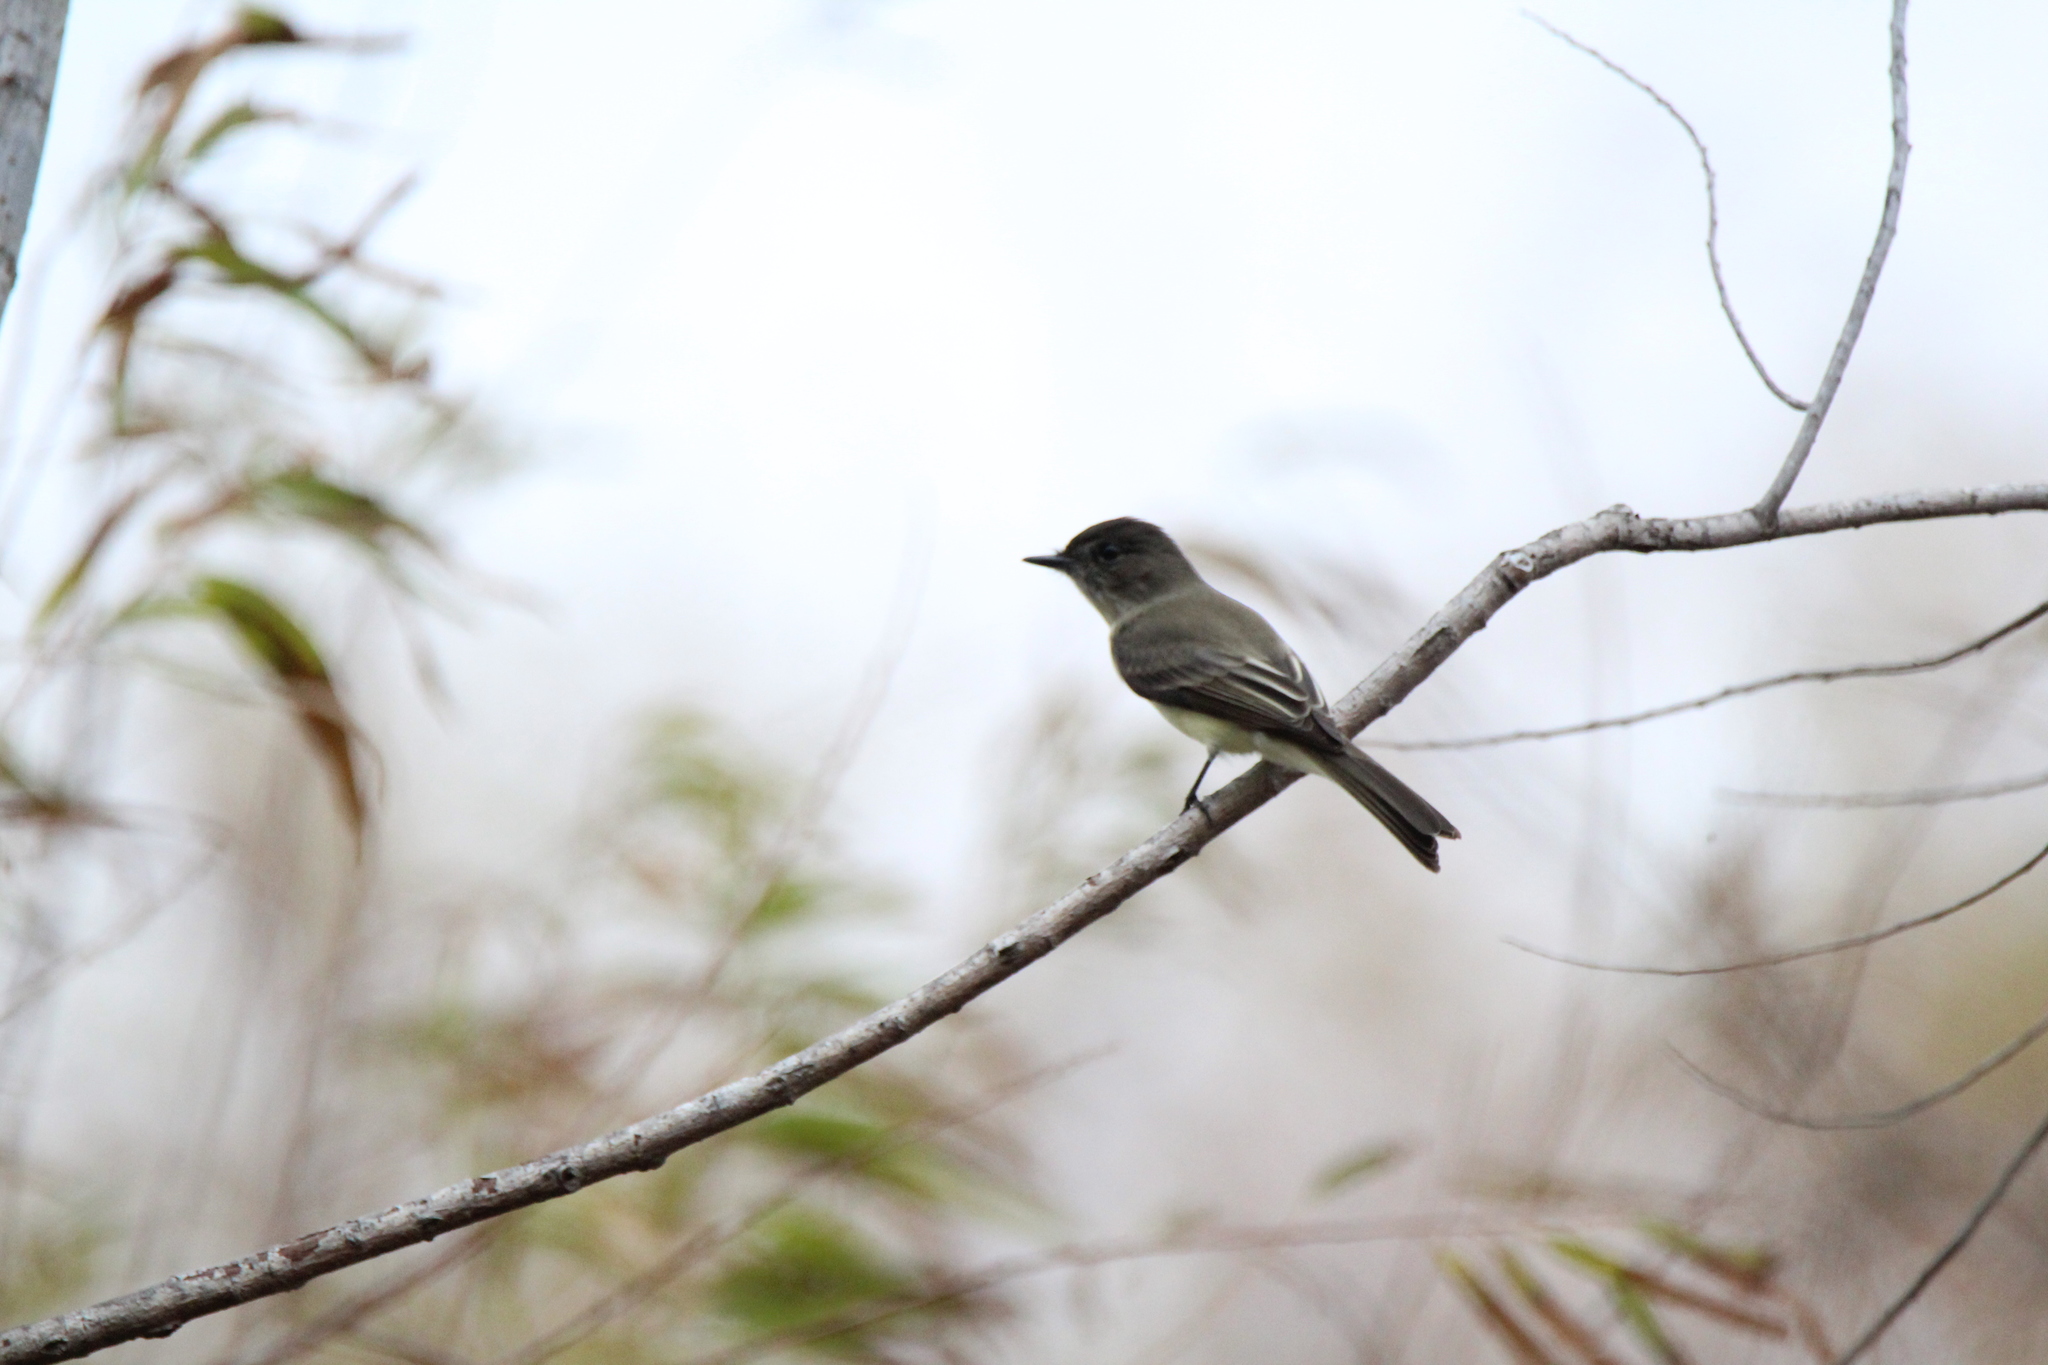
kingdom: Animalia
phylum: Chordata
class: Aves
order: Passeriformes
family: Tyrannidae
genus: Sayornis
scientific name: Sayornis phoebe
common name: Eastern phoebe
